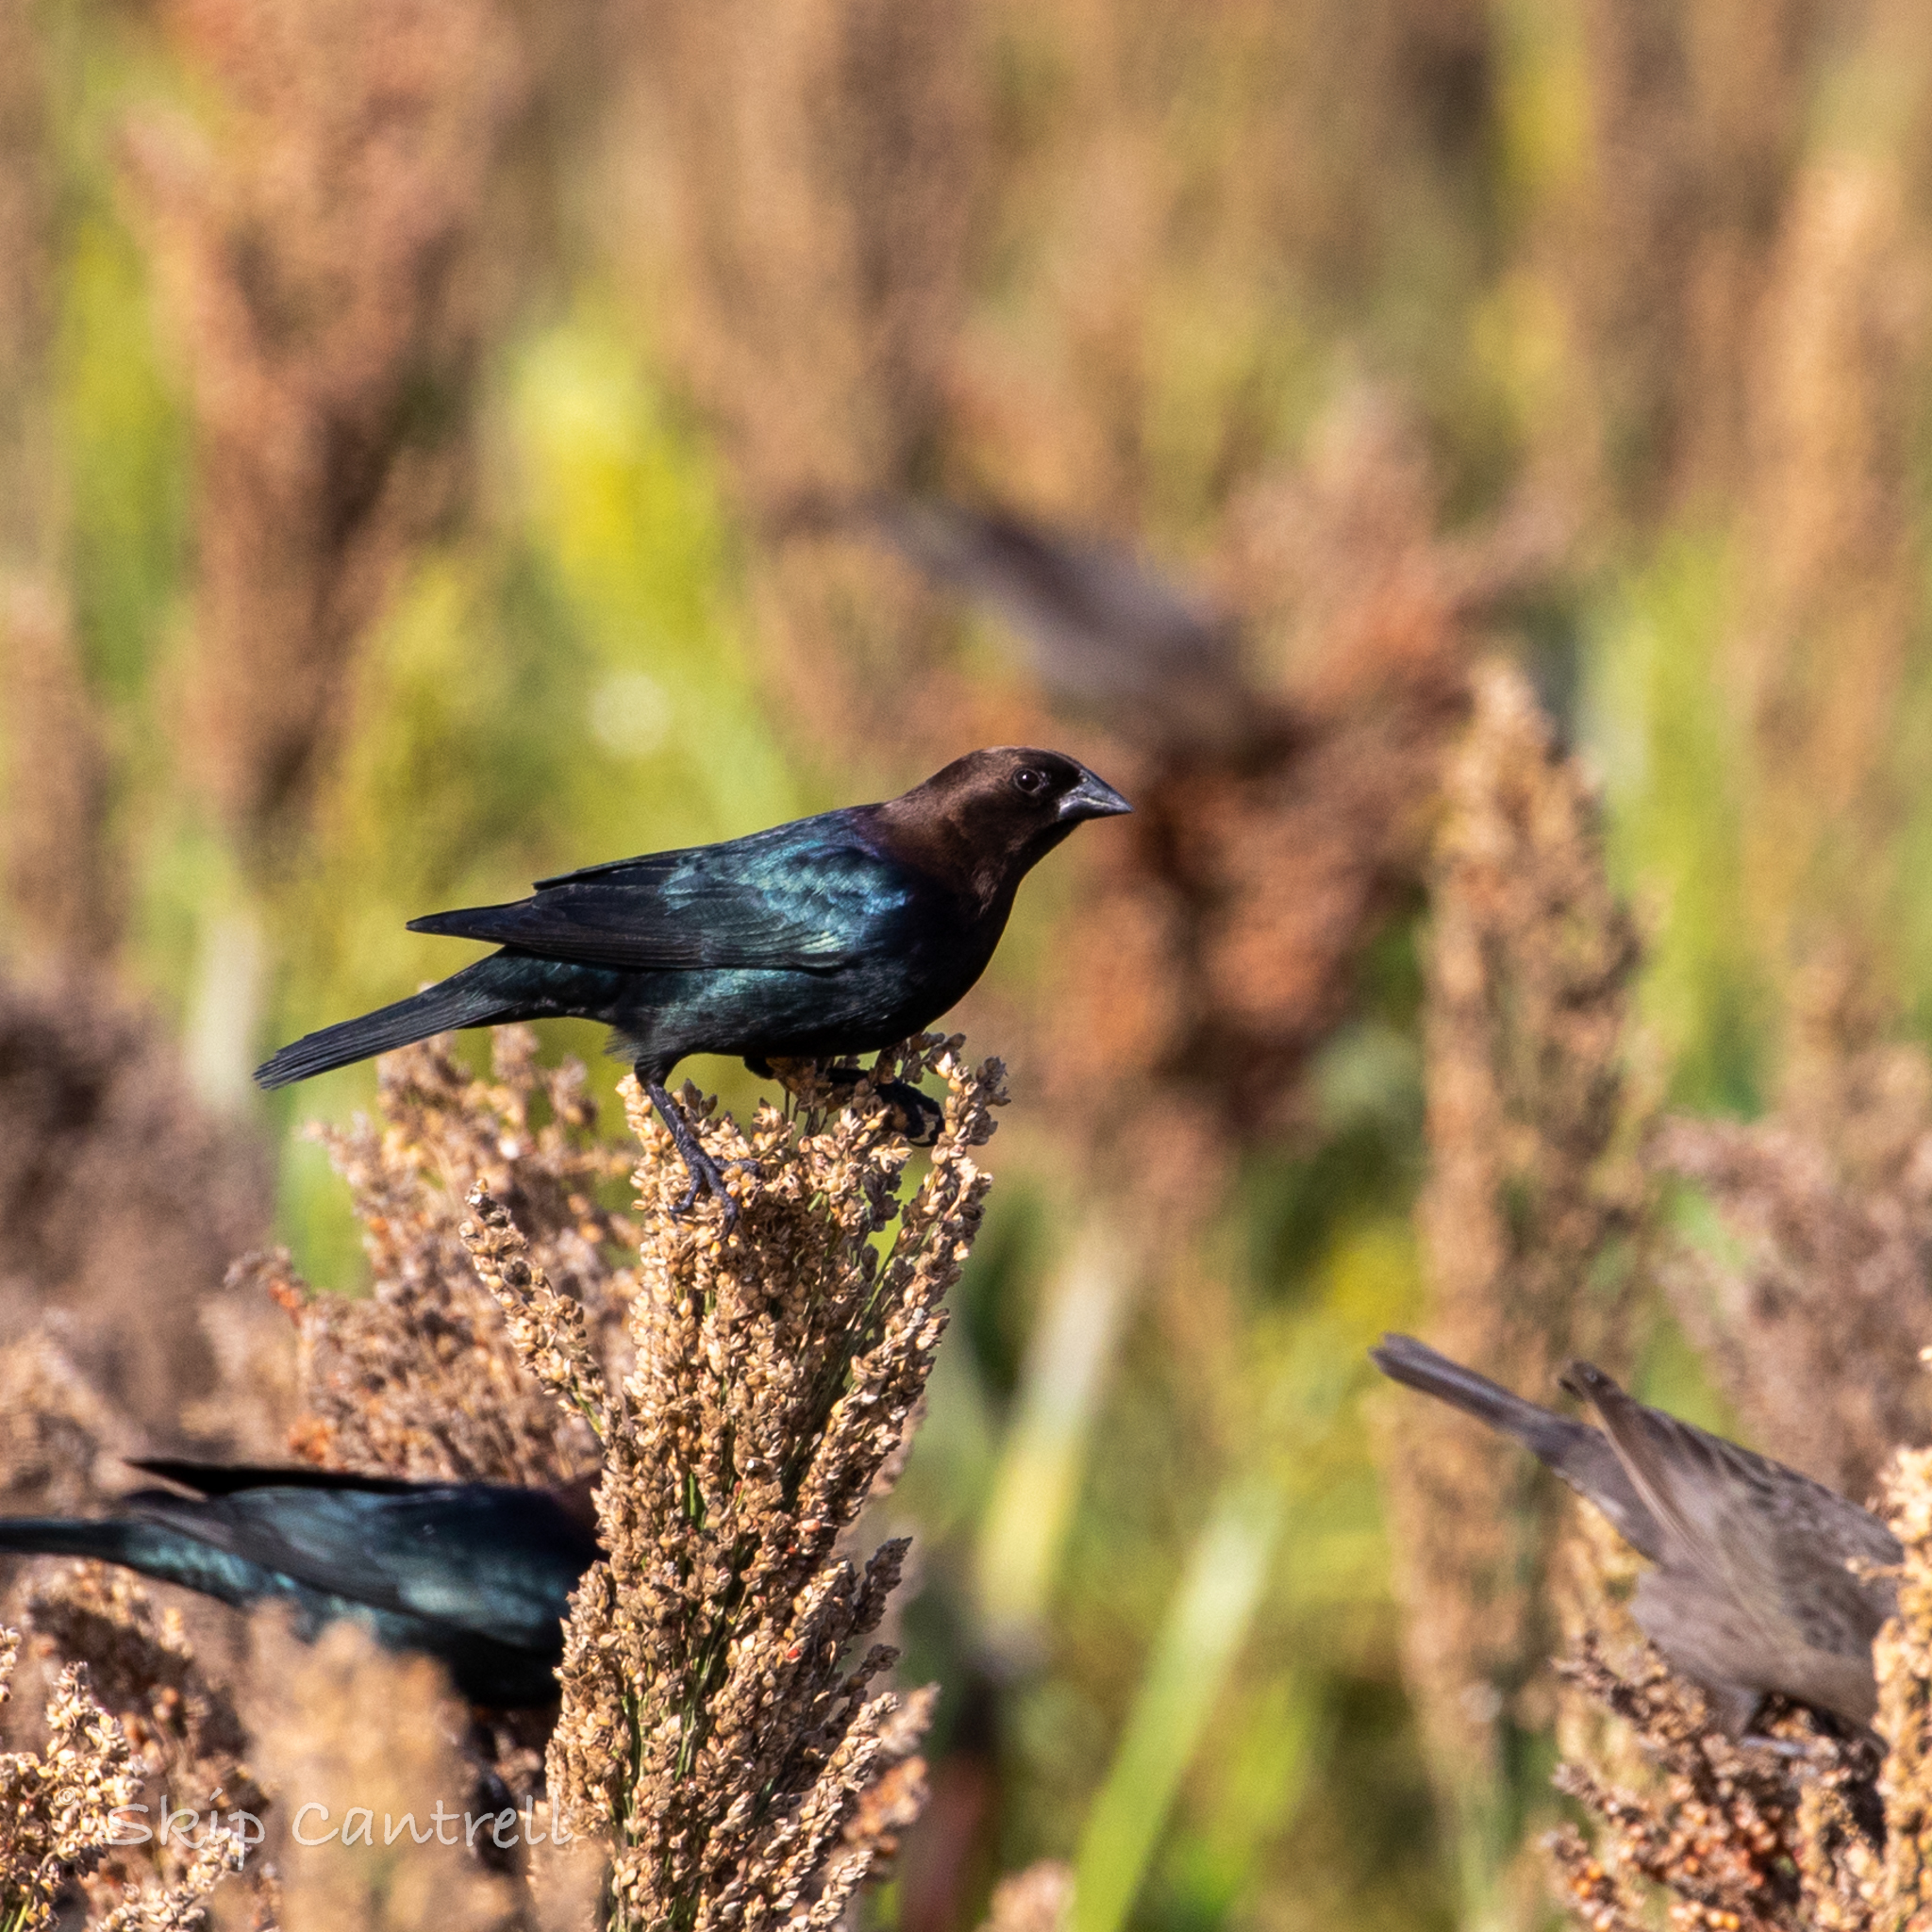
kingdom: Animalia
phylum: Chordata
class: Aves
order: Passeriformes
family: Icteridae
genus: Molothrus
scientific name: Molothrus ater
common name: Brown-headed cowbird
